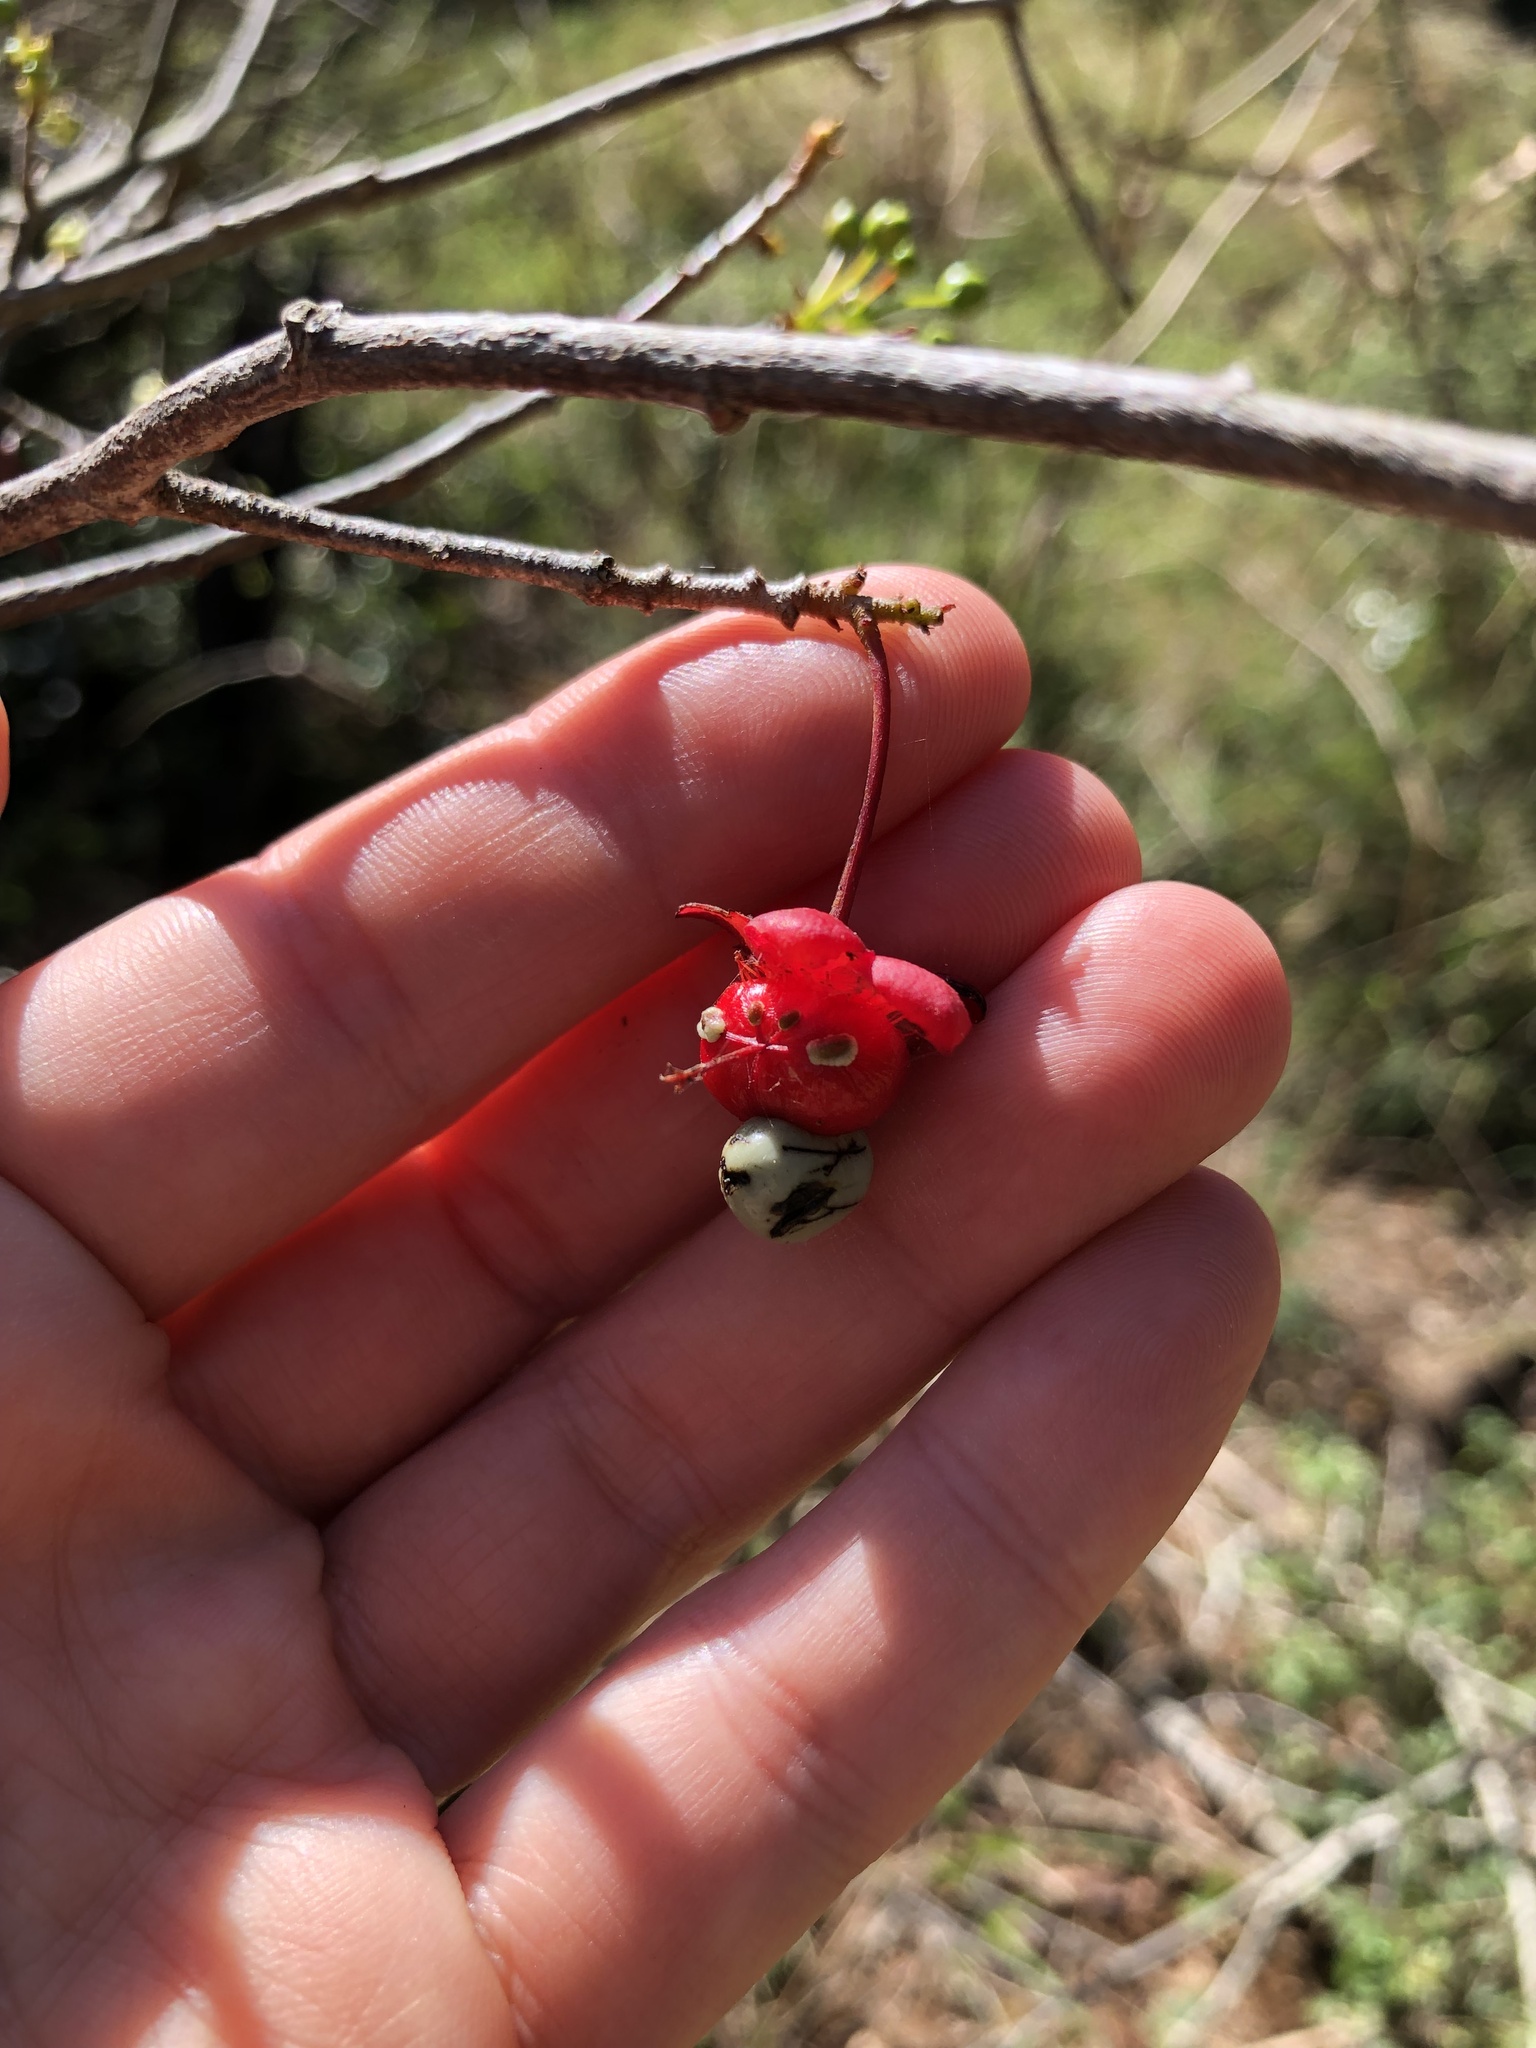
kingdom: Plantae
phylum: Tracheophyta
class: Magnoliopsida
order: Malpighiales
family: Ochnaceae
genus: Ochna
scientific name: Ochna natalitia
